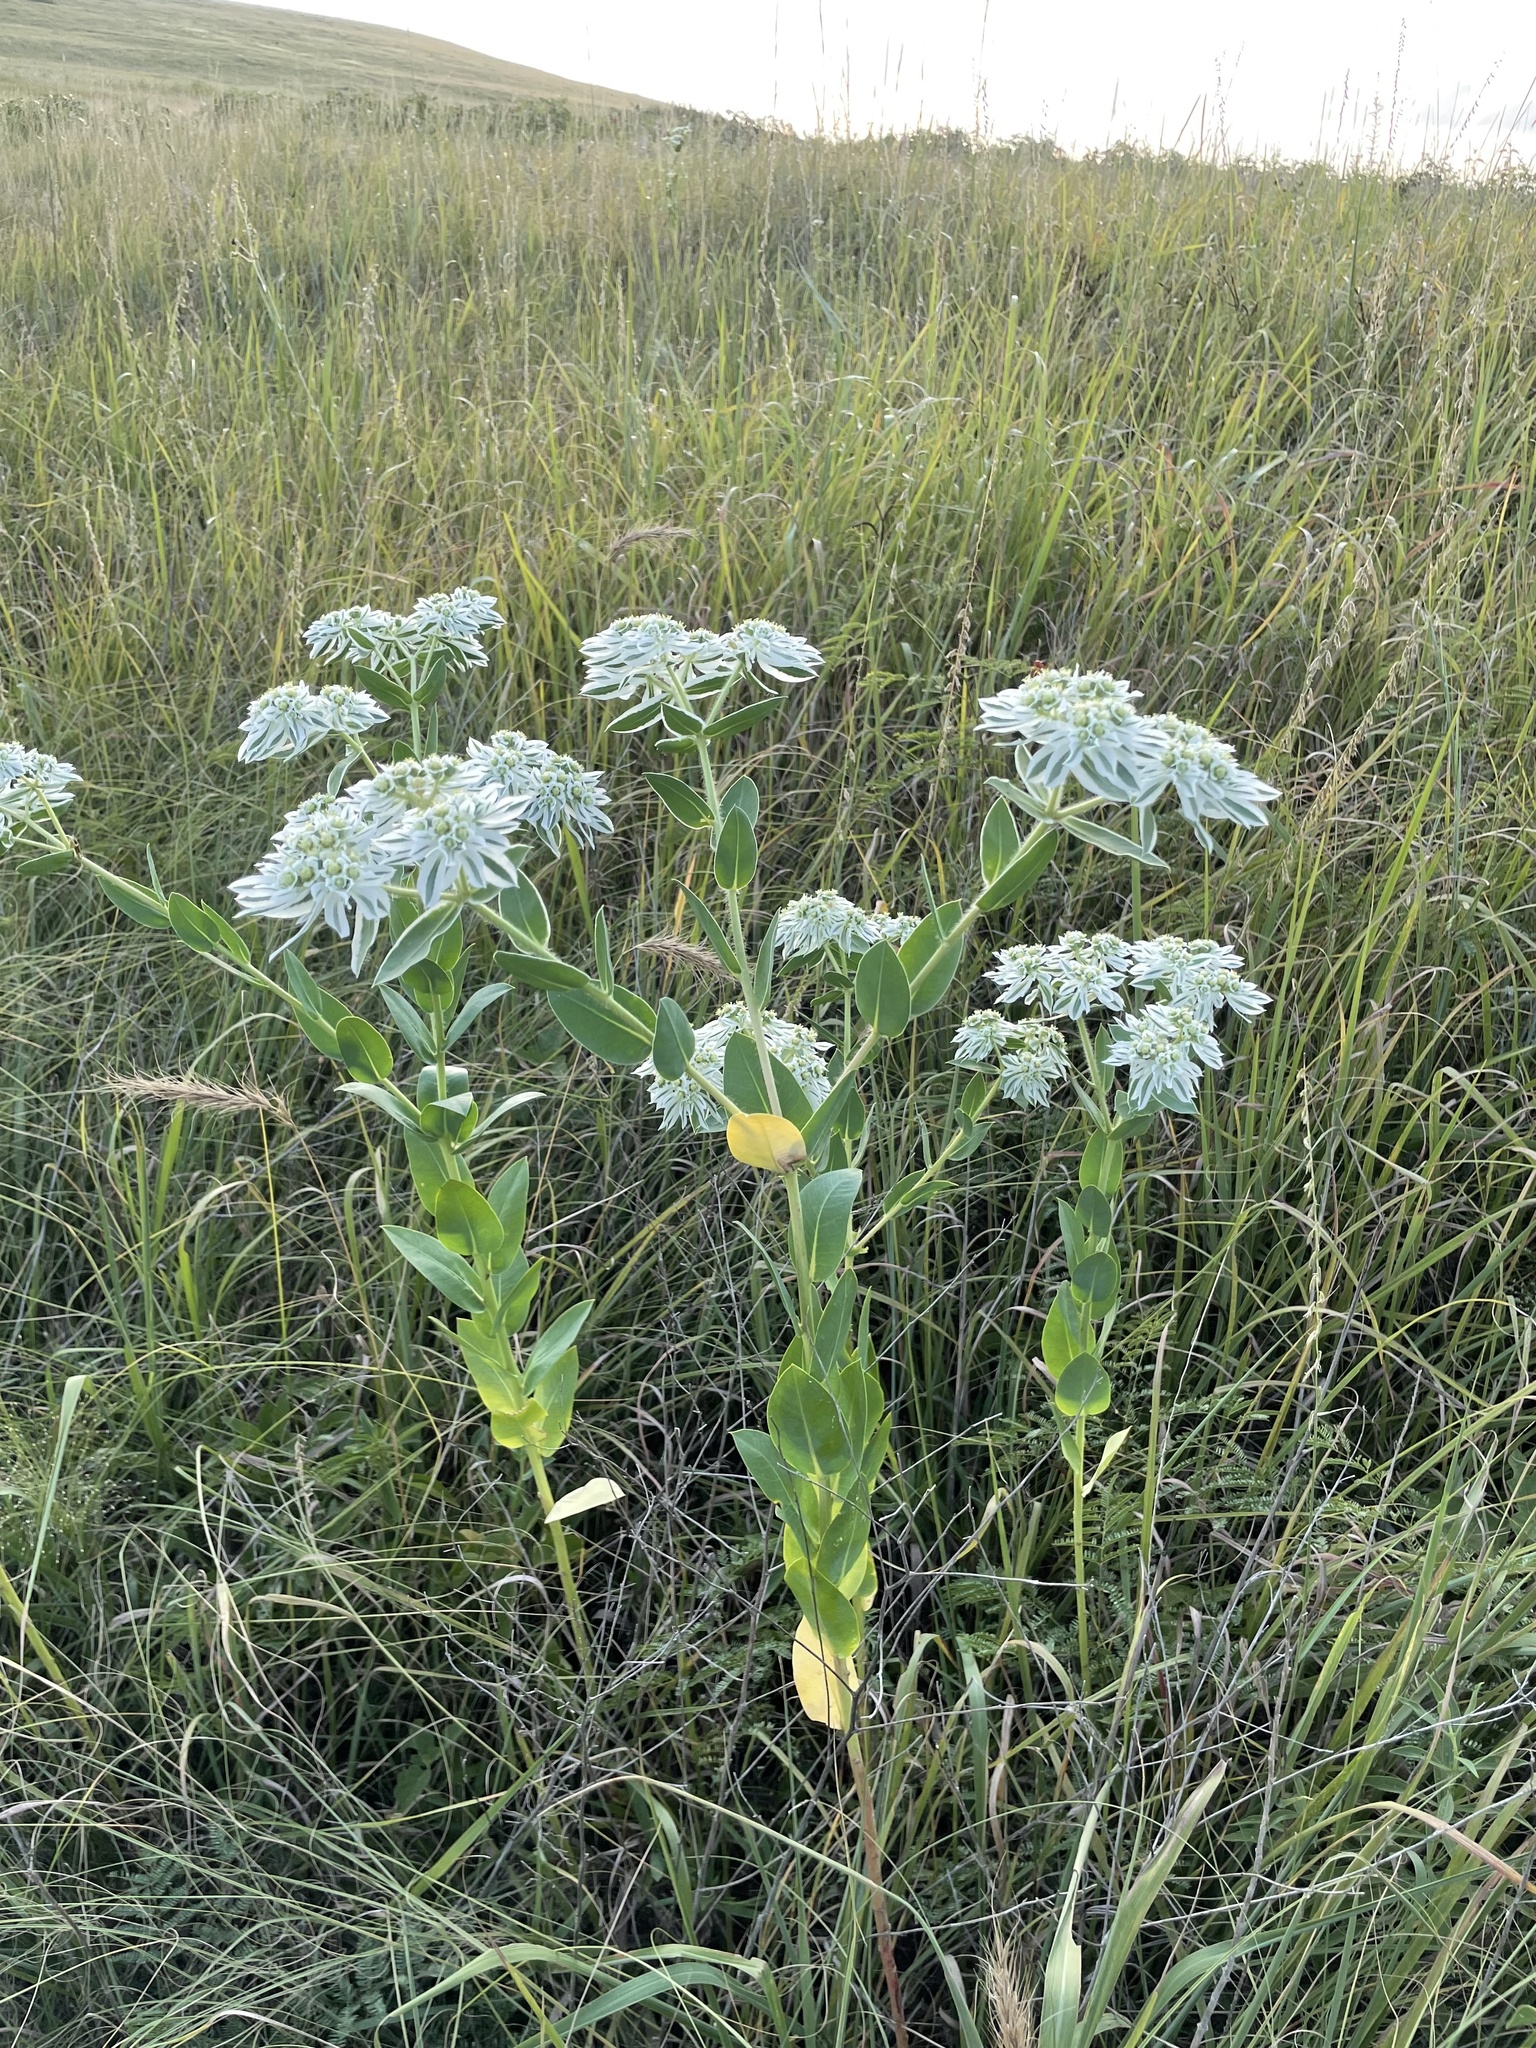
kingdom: Plantae
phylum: Tracheophyta
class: Magnoliopsida
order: Malpighiales
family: Euphorbiaceae
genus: Euphorbia
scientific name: Euphorbia marginata
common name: Ghostweed
